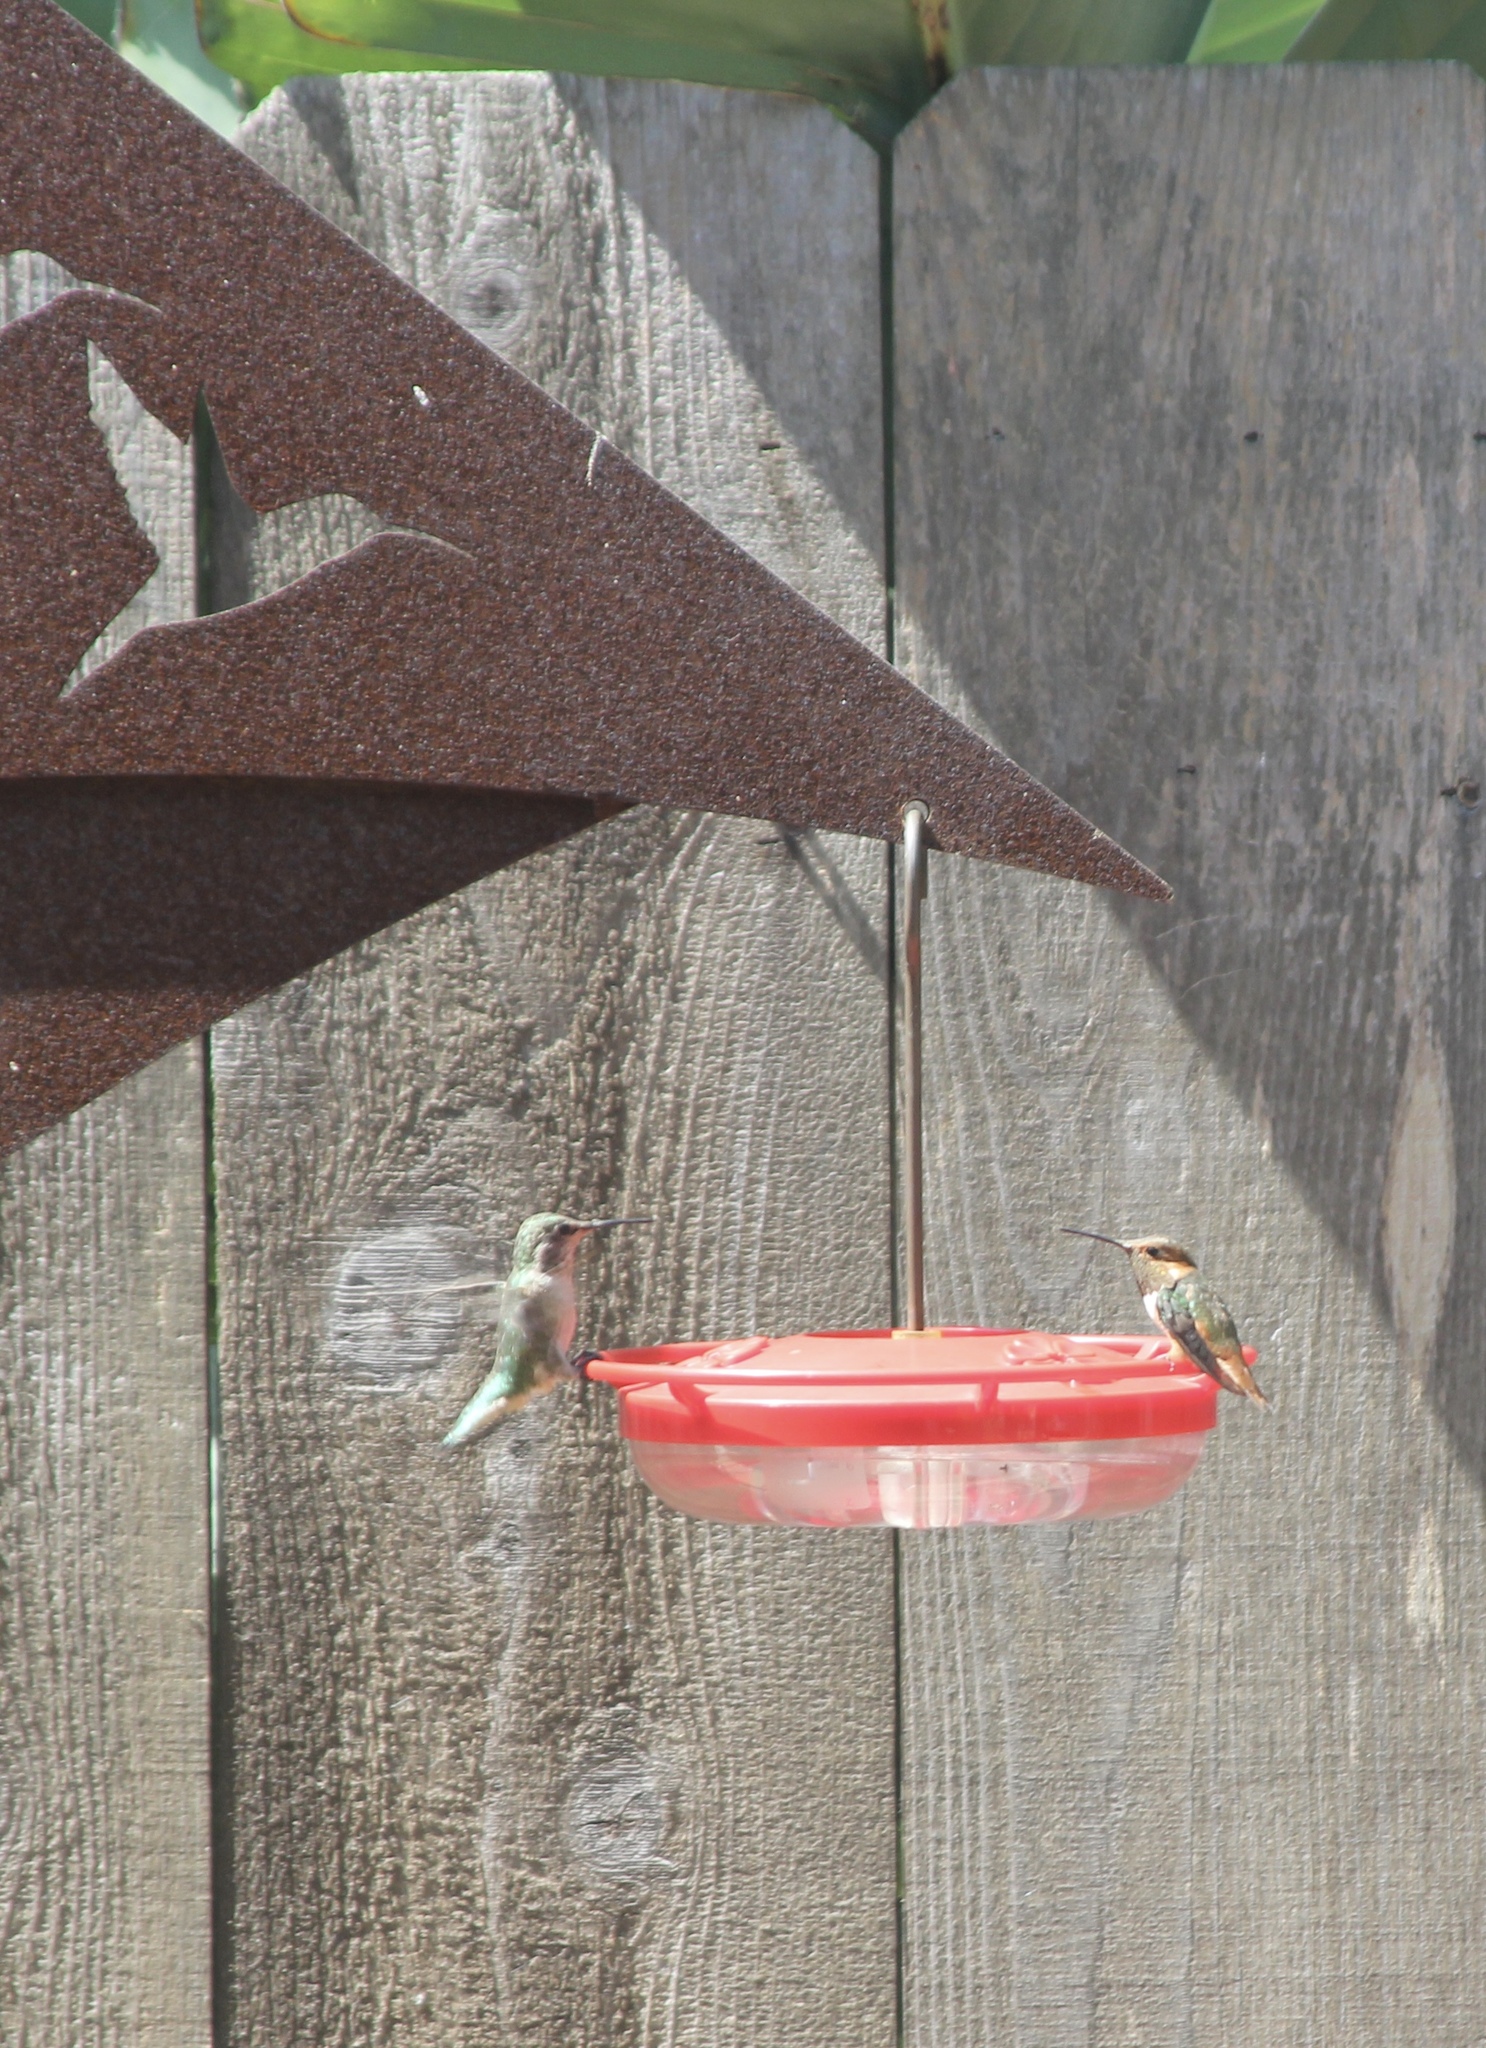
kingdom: Animalia
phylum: Chordata
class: Aves
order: Apodiformes
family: Trochilidae
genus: Selasphorus
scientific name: Selasphorus sasin
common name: Allen's hummingbird
